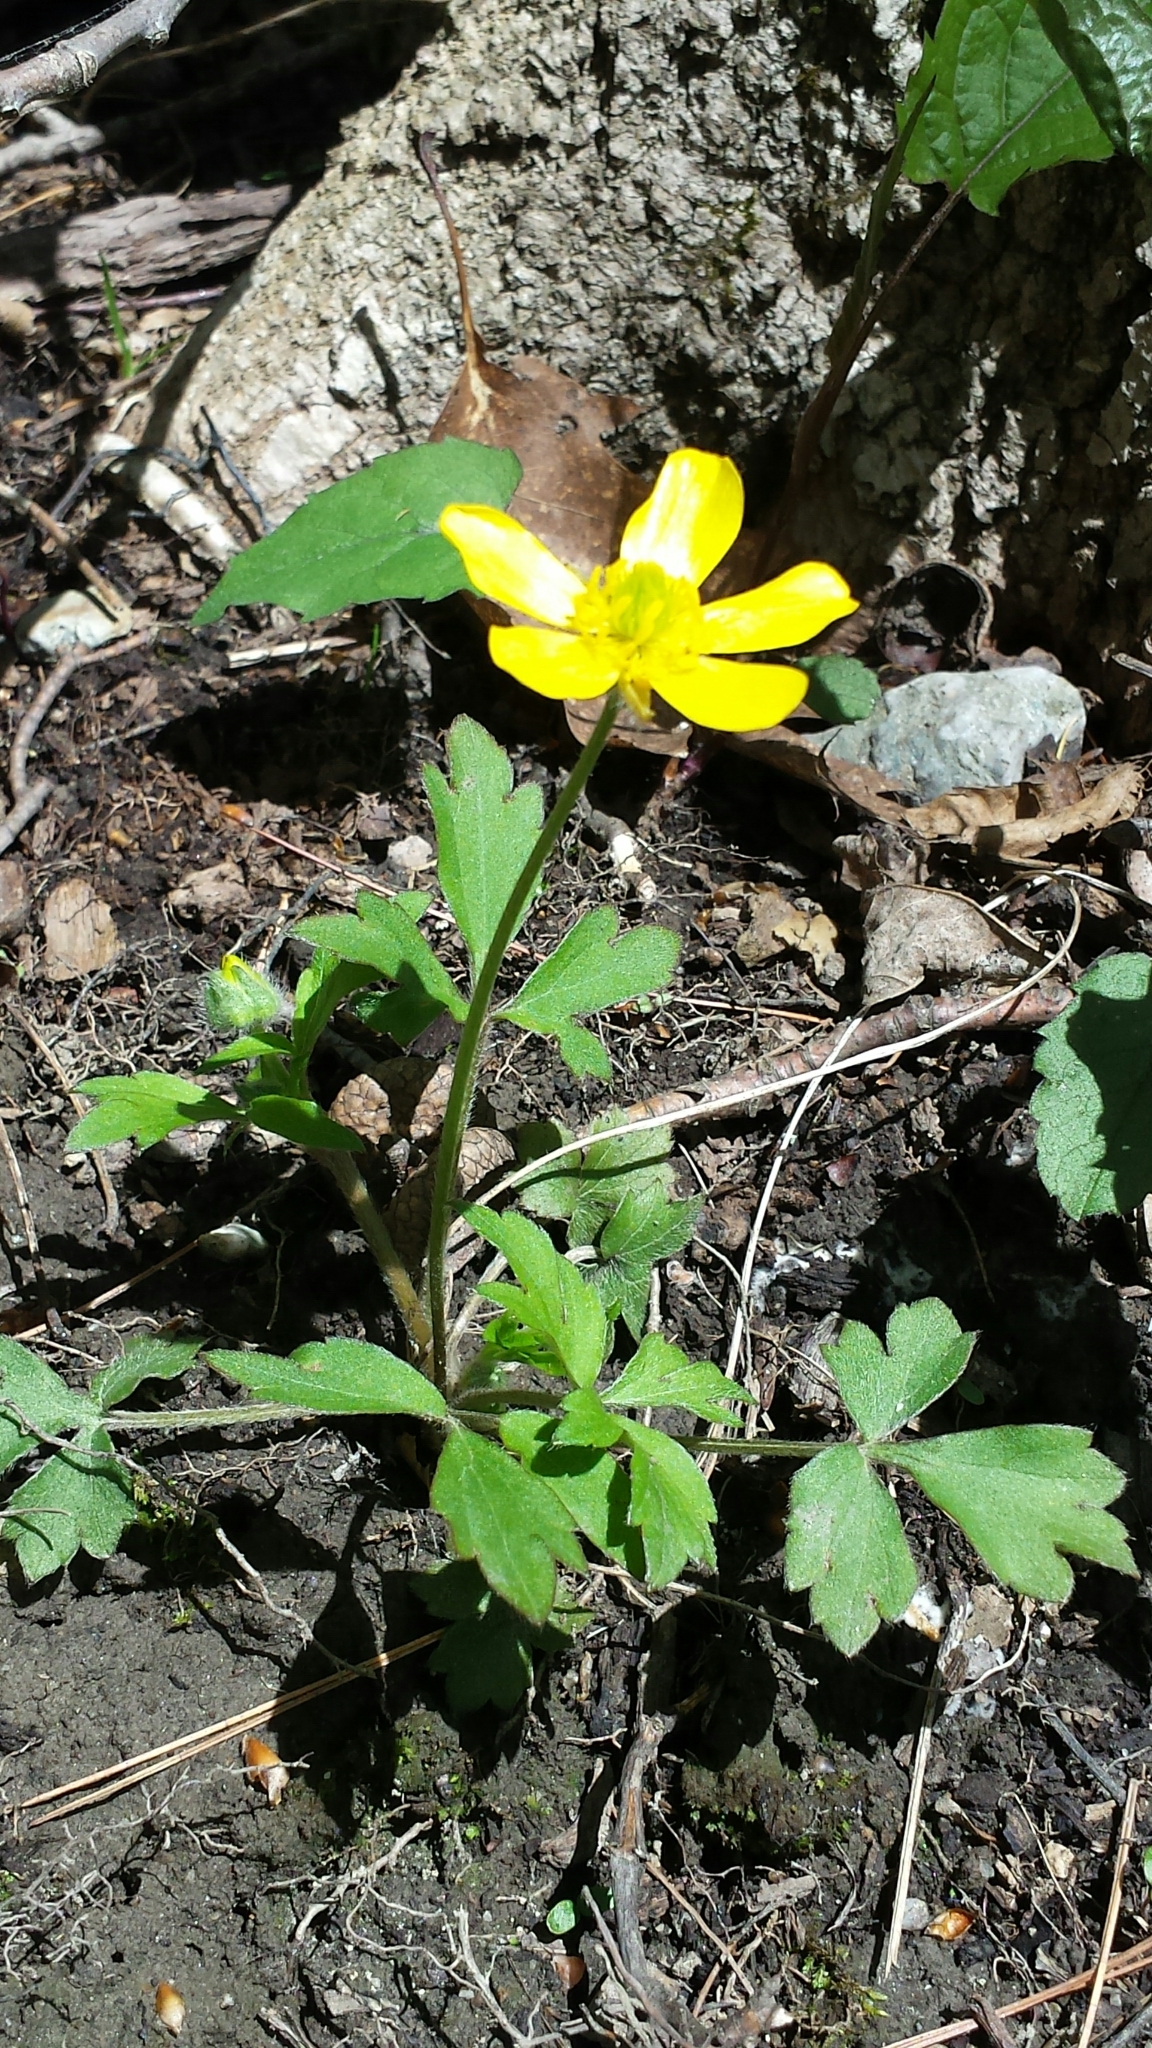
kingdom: Plantae
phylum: Tracheophyta
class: Magnoliopsida
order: Ranunculales
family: Ranunculaceae
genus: Ranunculus
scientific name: Ranunculus hispidus
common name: Bristly buttercup
